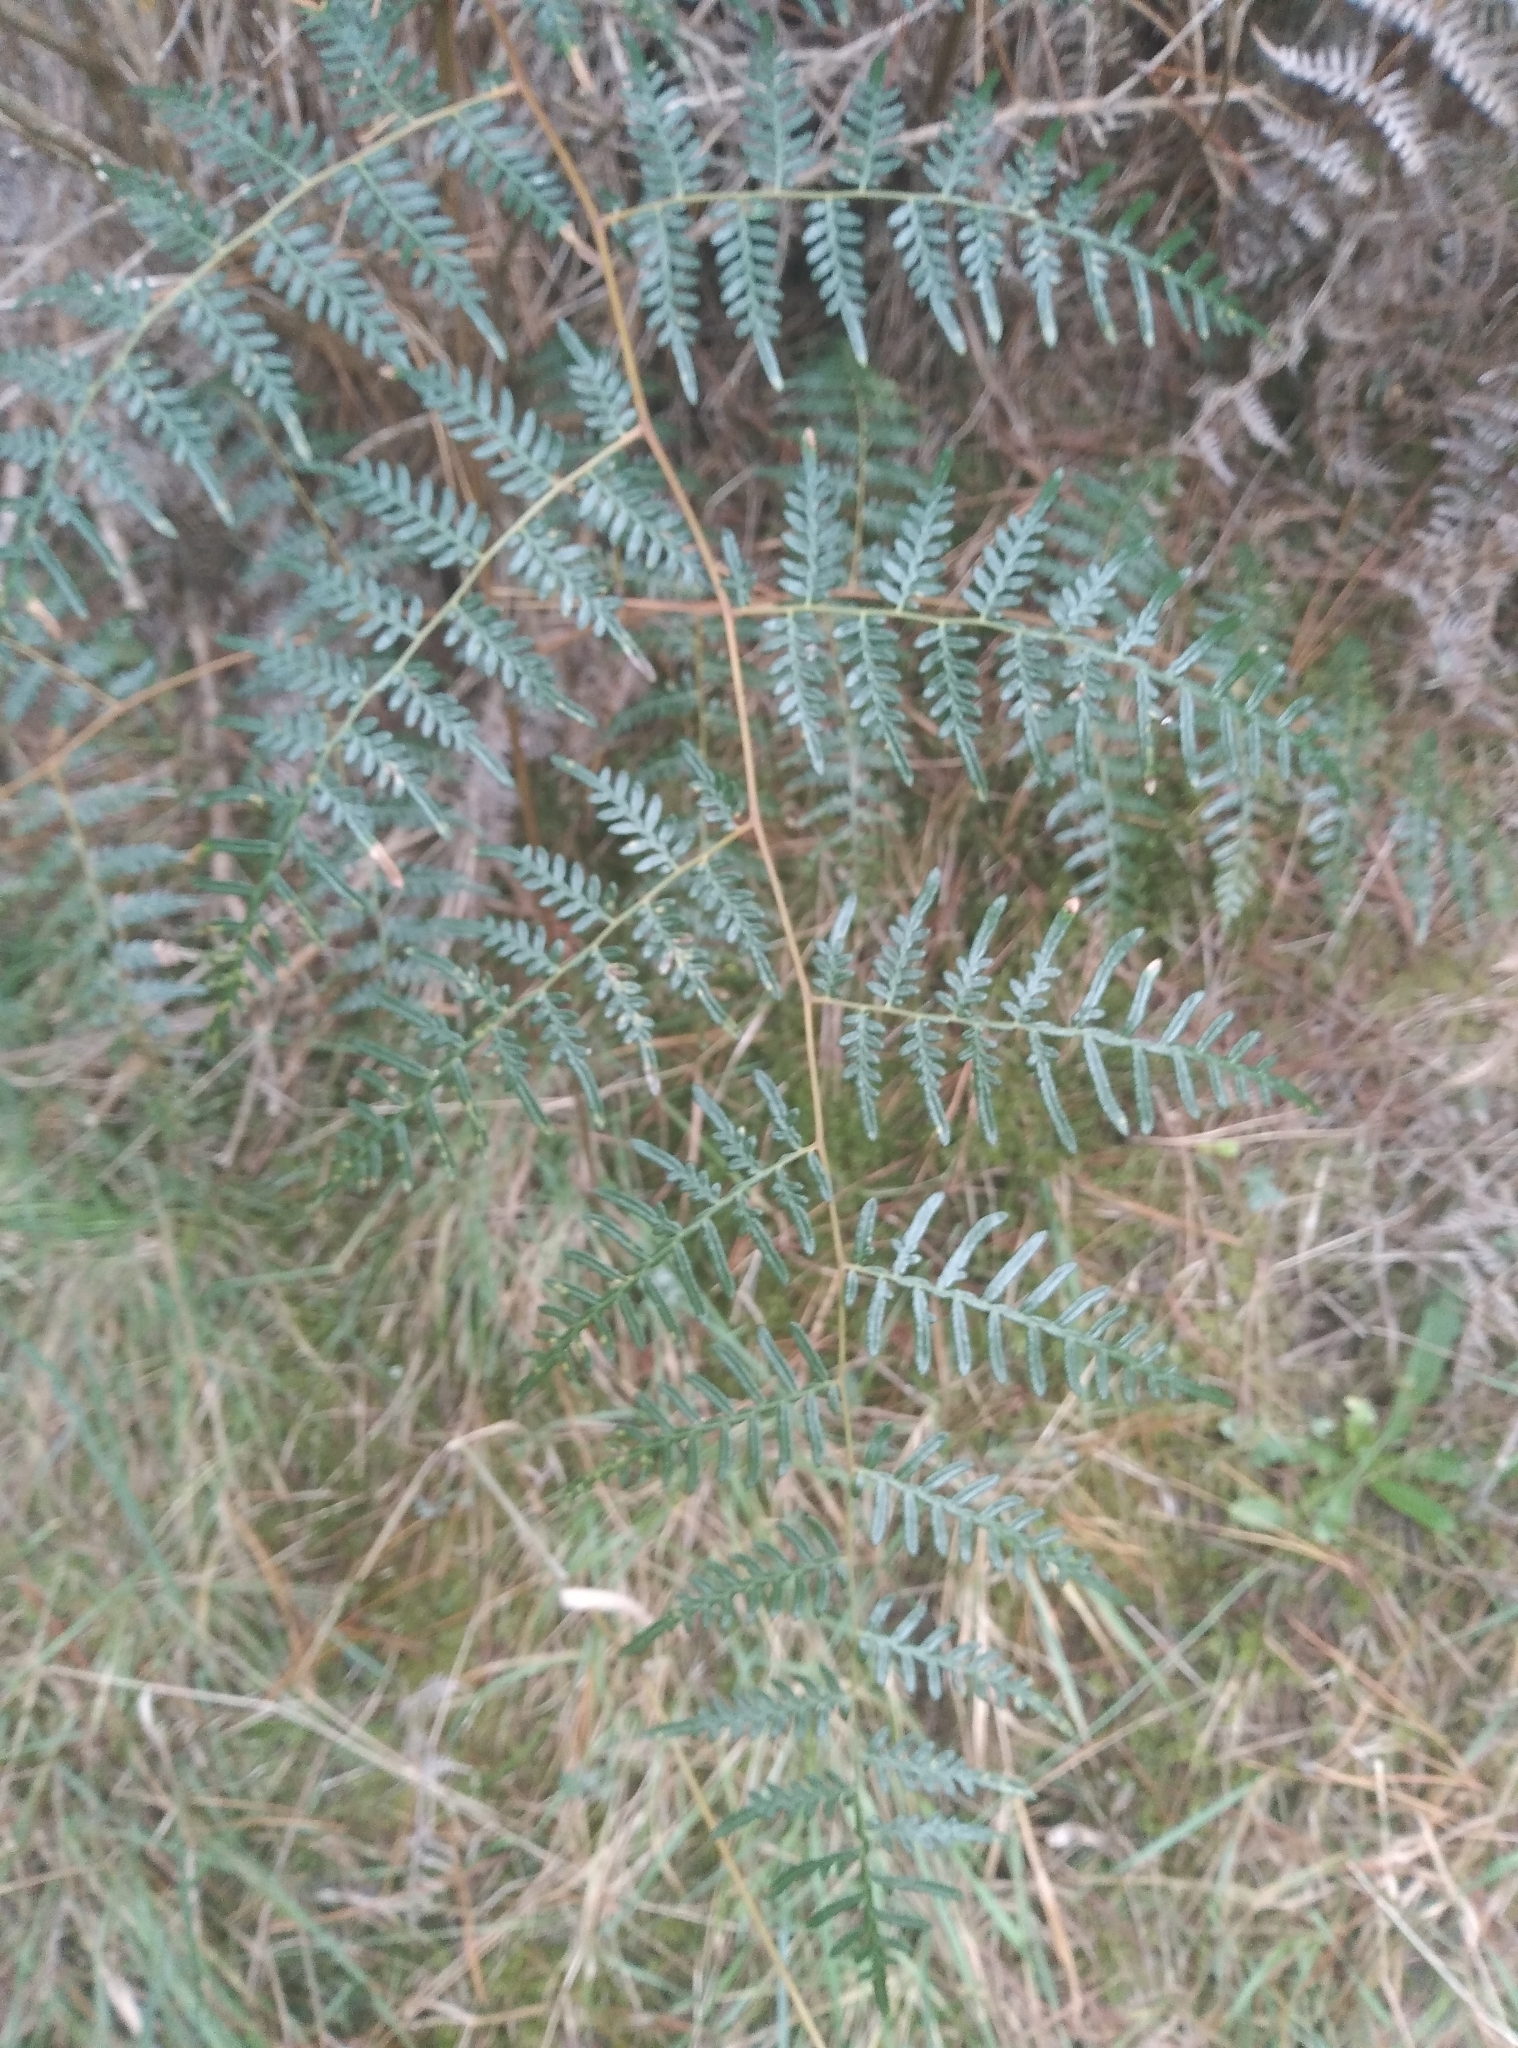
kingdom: Plantae
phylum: Tracheophyta
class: Polypodiopsida
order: Polypodiales
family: Dennstaedtiaceae
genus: Pteridium
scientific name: Pteridium esculentum
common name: Bracken fern
